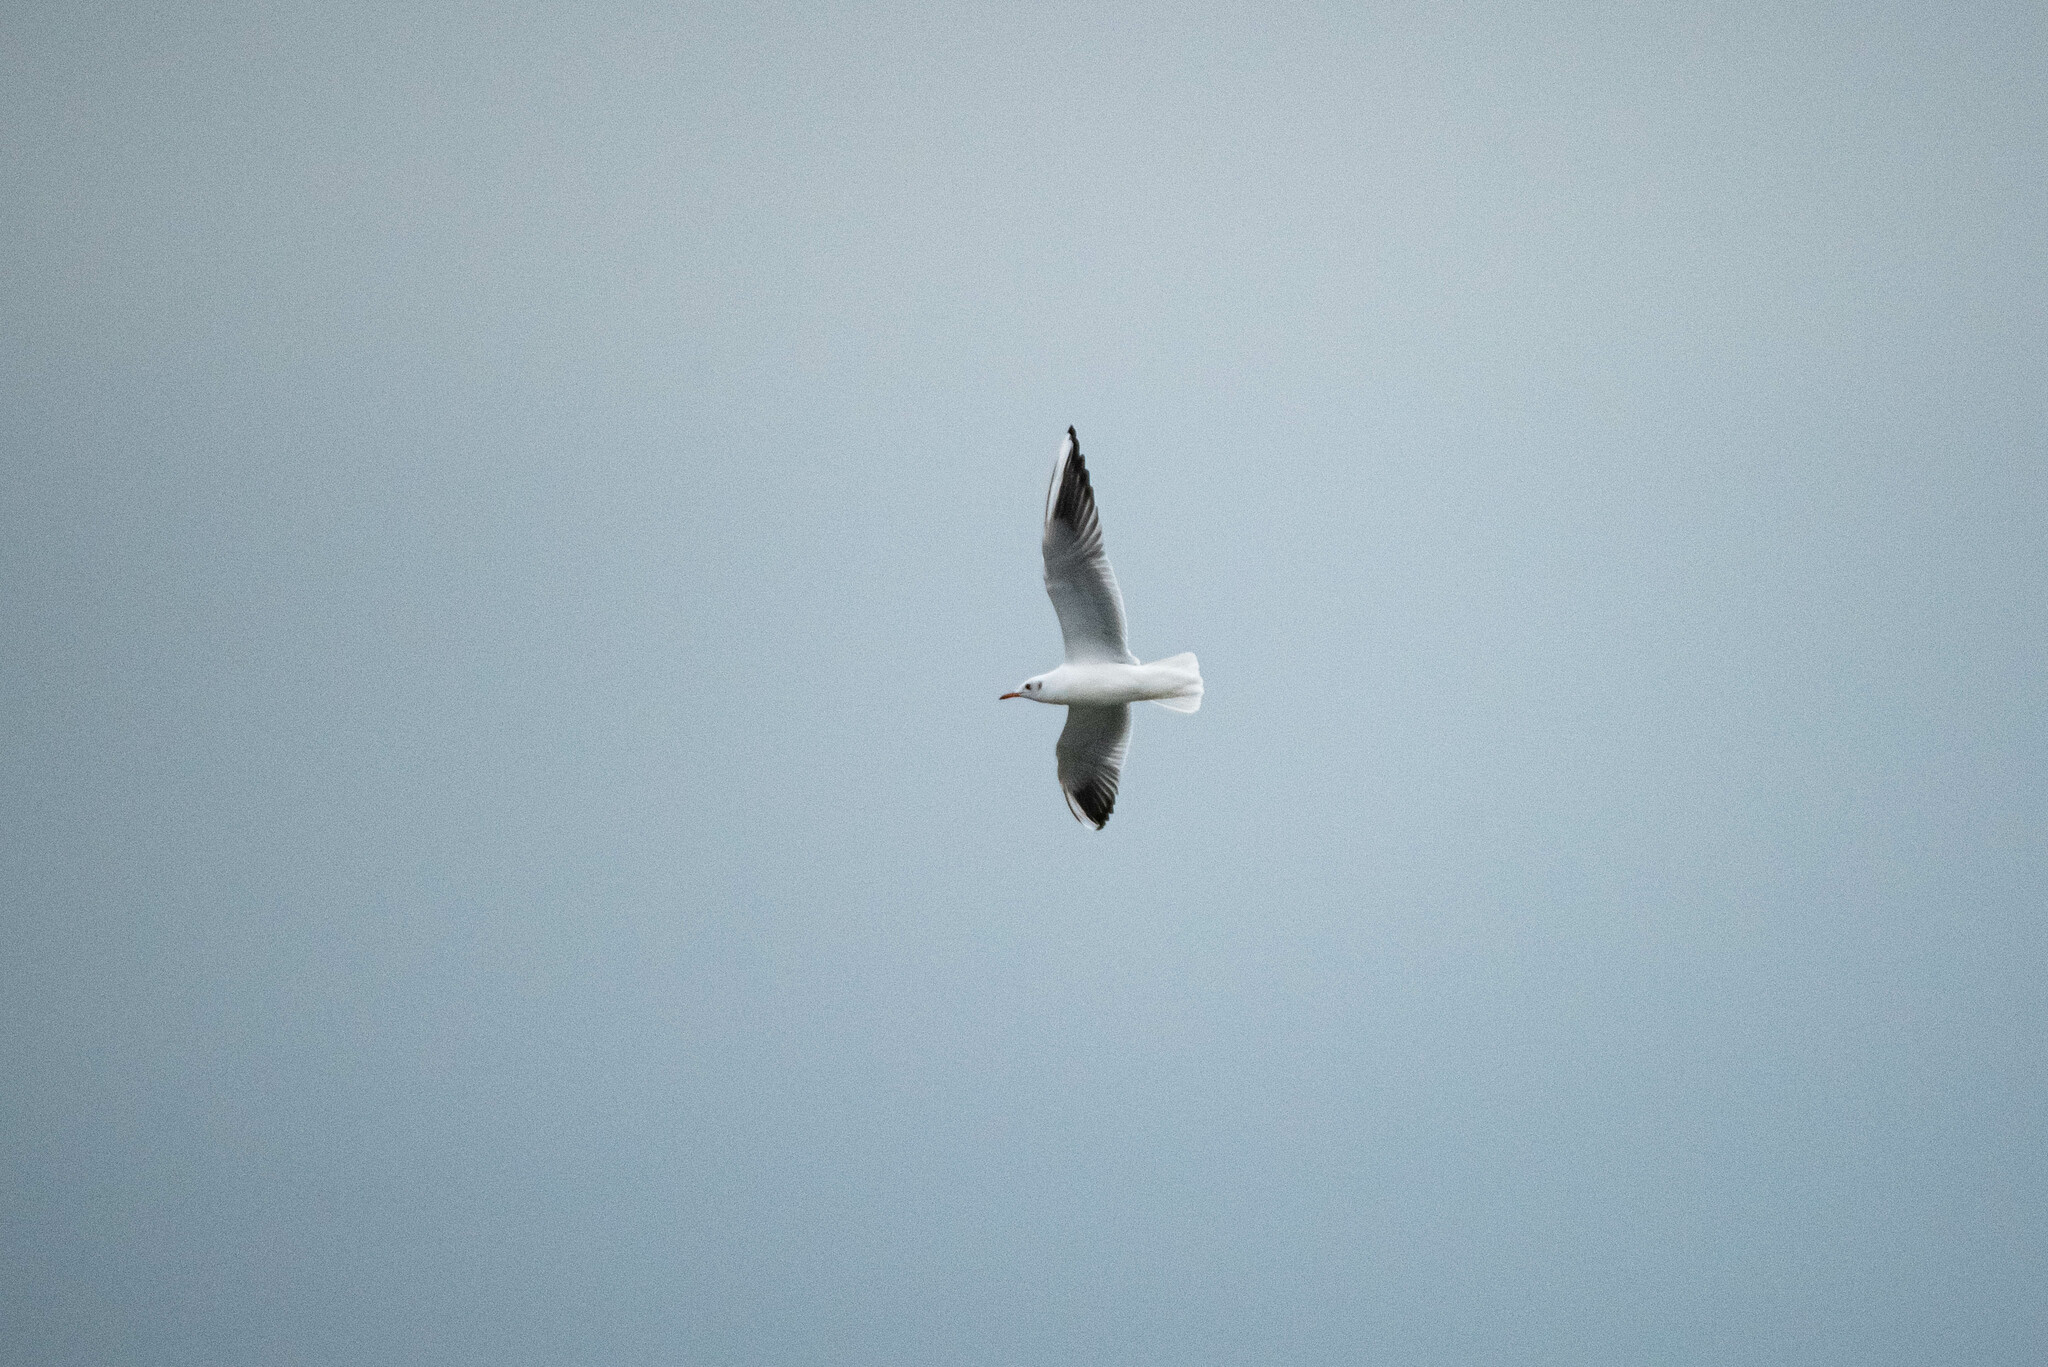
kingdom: Animalia
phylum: Chordata
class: Aves
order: Charadriiformes
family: Laridae
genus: Chroicocephalus
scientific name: Chroicocephalus ridibundus
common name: Black-headed gull
